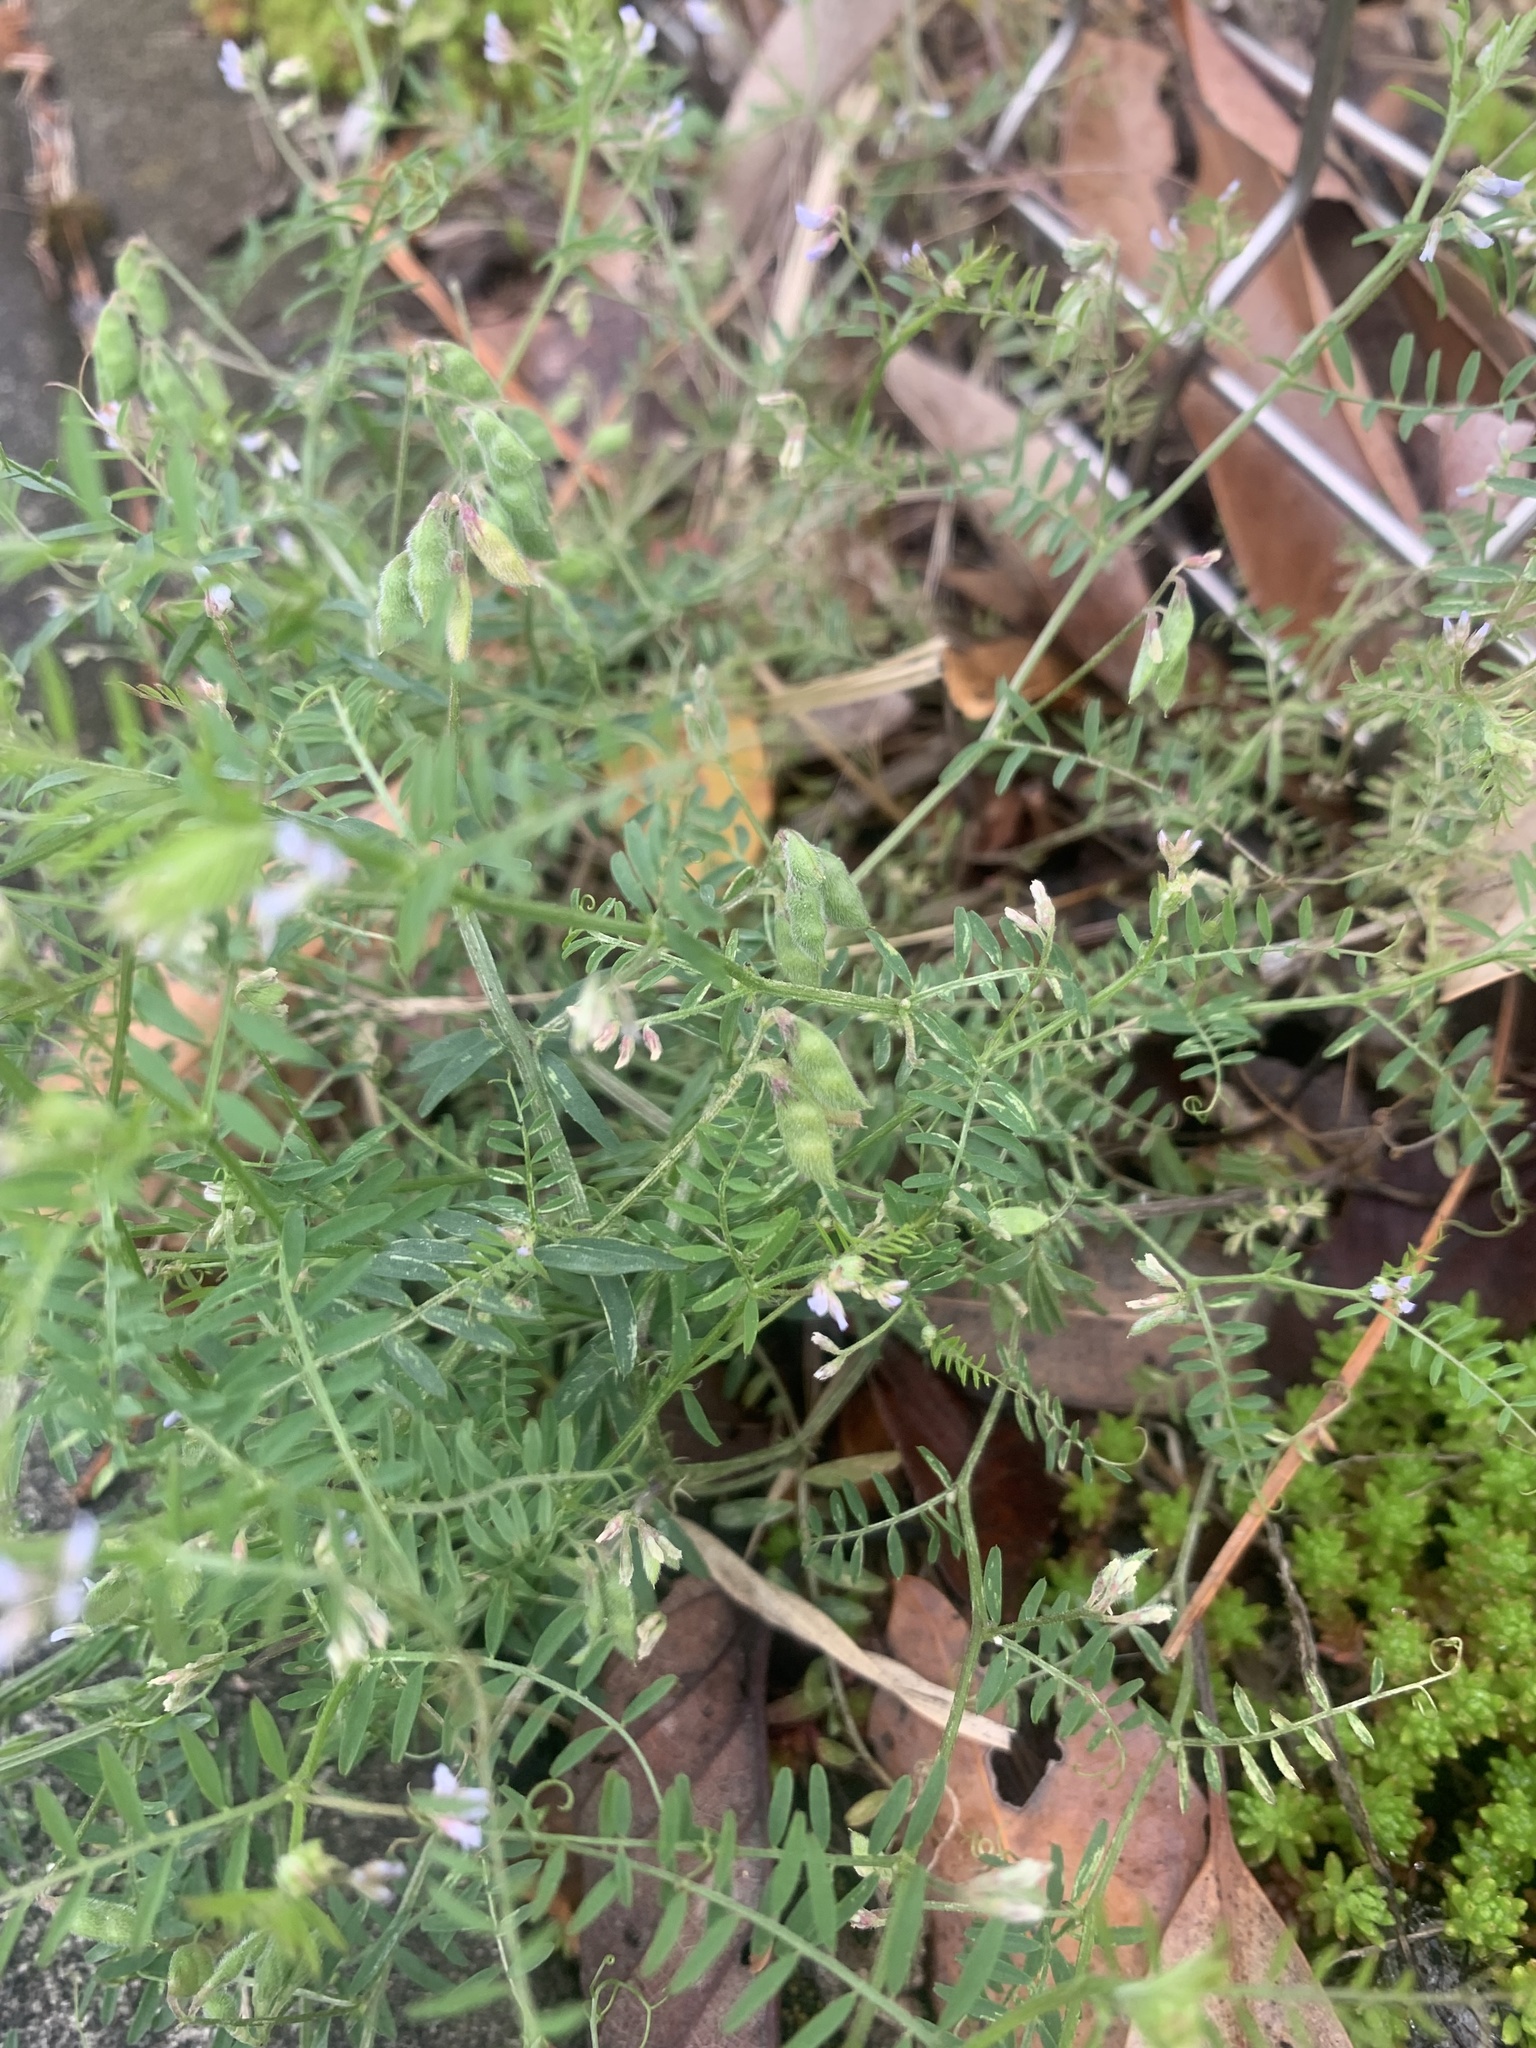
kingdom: Plantae
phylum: Tracheophyta
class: Magnoliopsida
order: Fabales
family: Fabaceae
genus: Vicia
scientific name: Vicia hirsuta
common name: Tiny vetch
